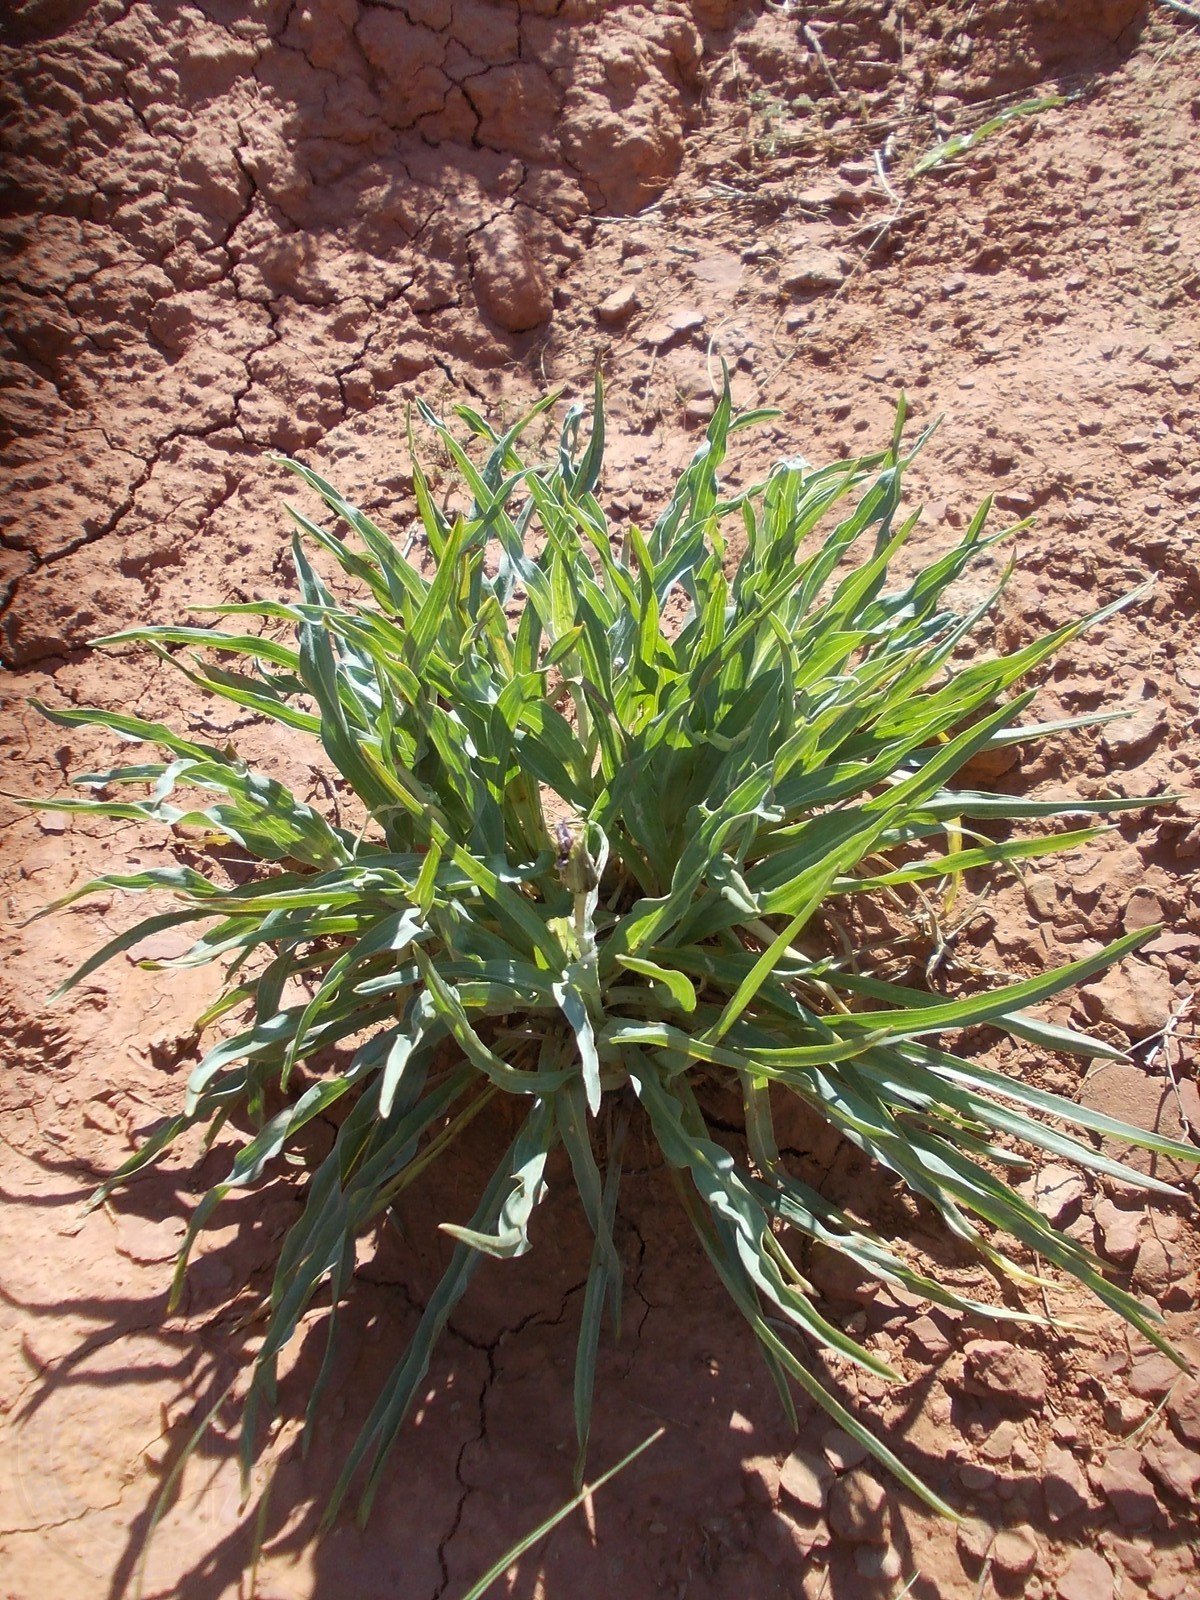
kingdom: Plantae
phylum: Tracheophyta
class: Magnoliopsida
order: Asterales
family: Asteraceae
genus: Tragopogon
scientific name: Tragopogon marginifolius
